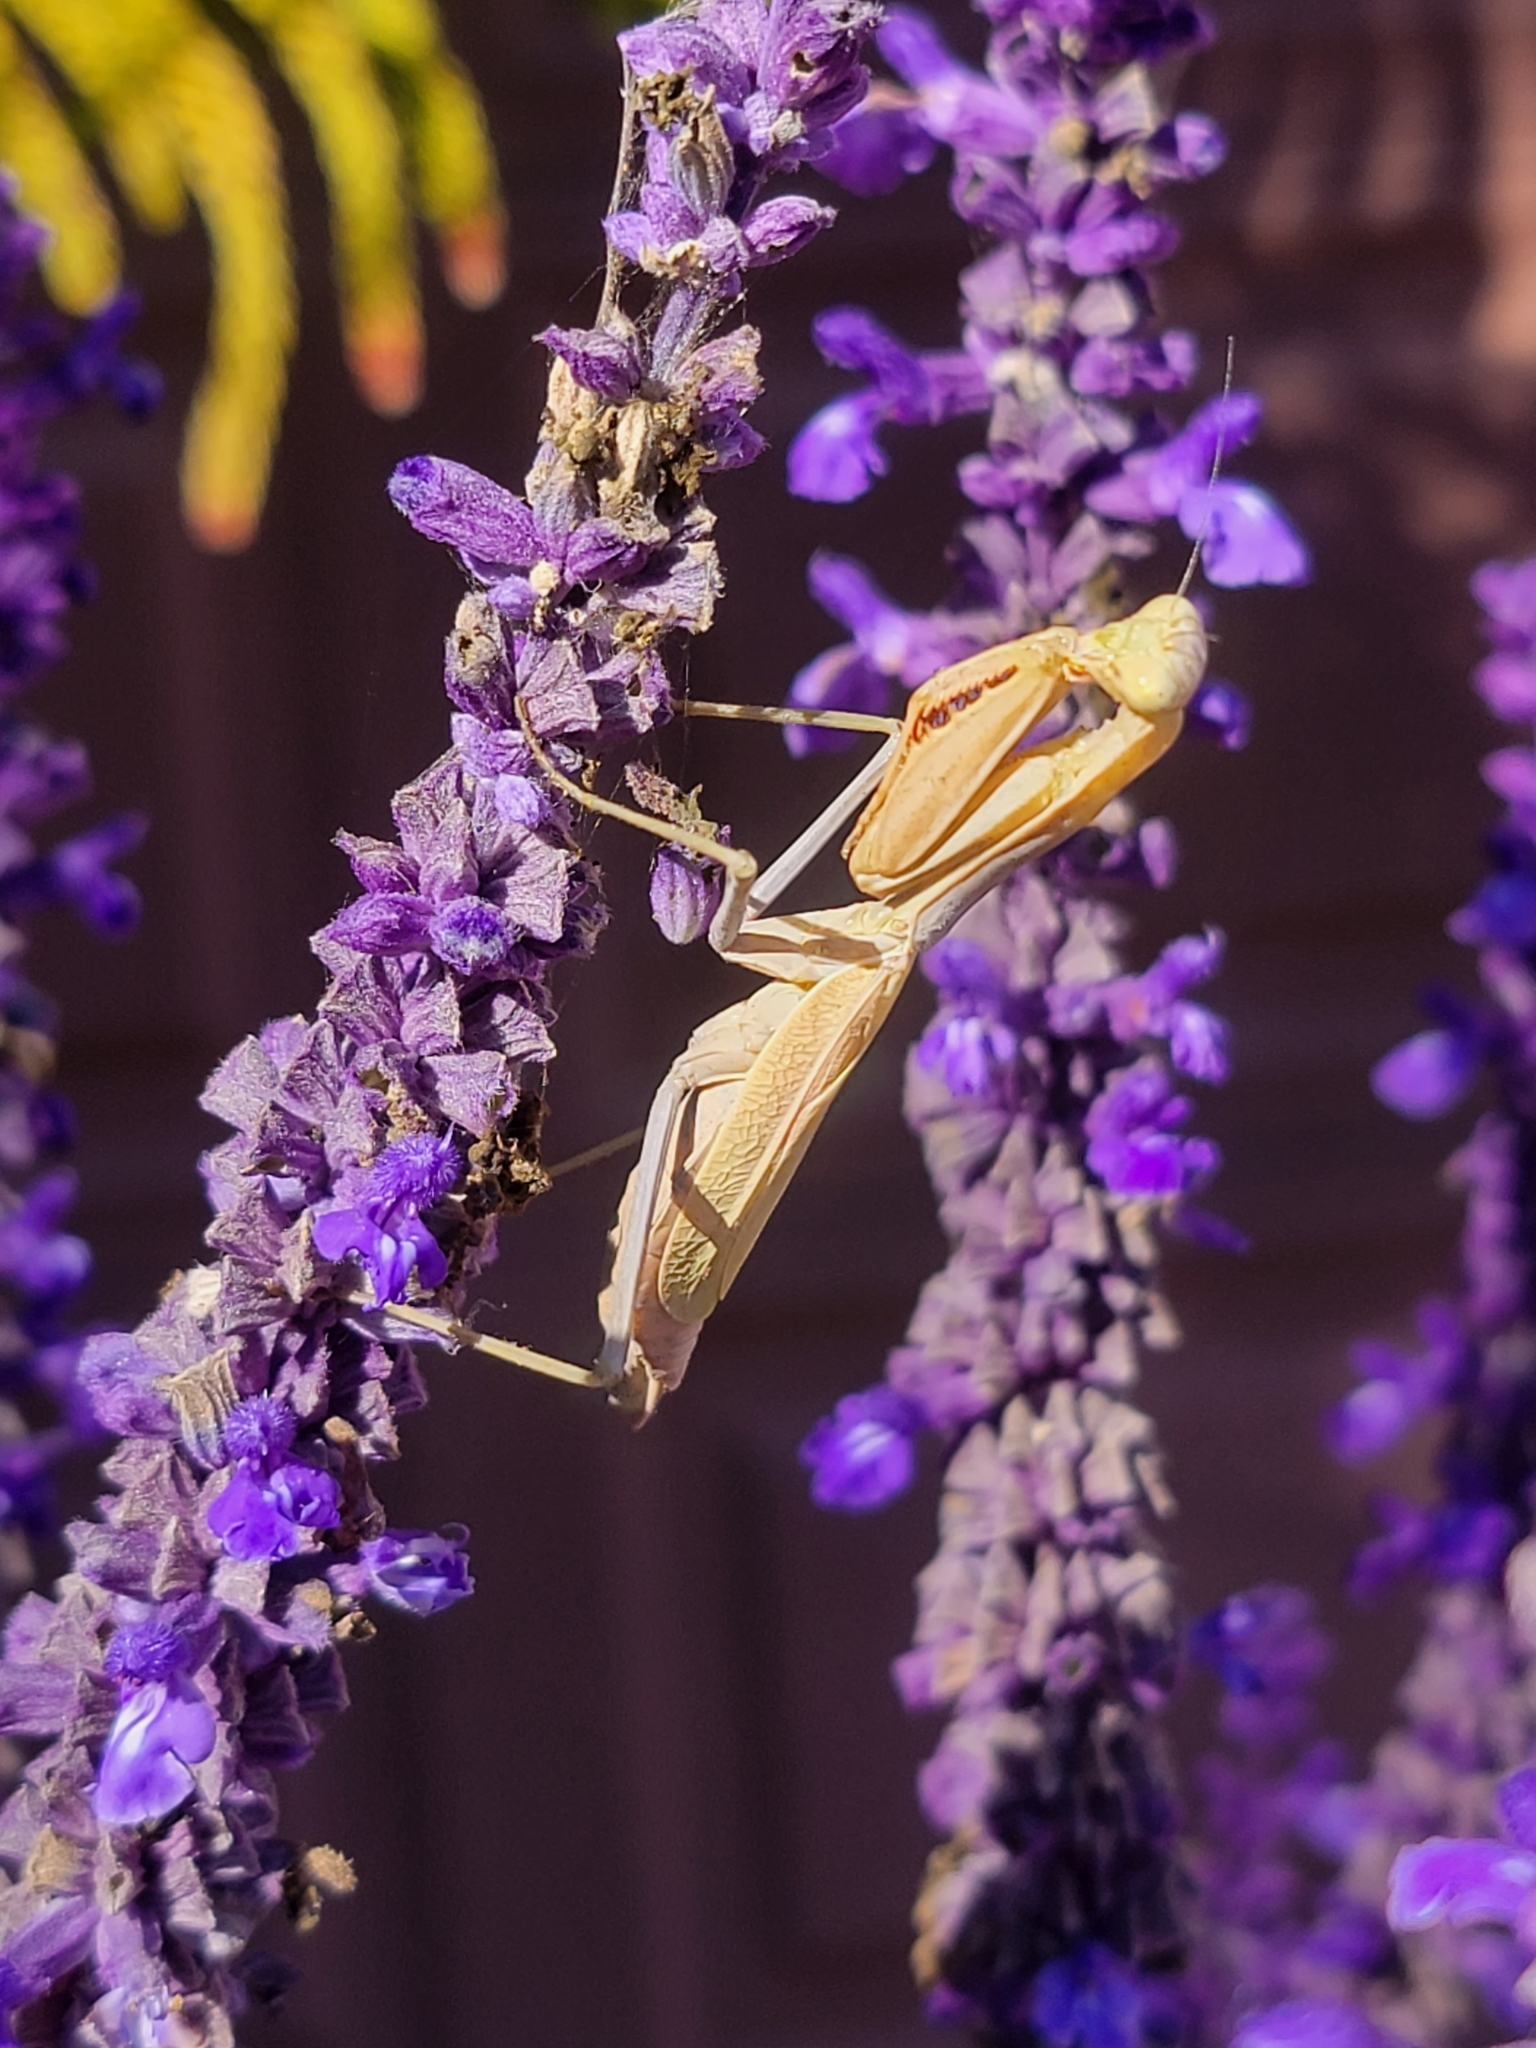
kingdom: Animalia
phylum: Arthropoda
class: Insecta
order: Mantodea
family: Mantidae
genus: Stagmomantis
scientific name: Stagmomantis limbata
